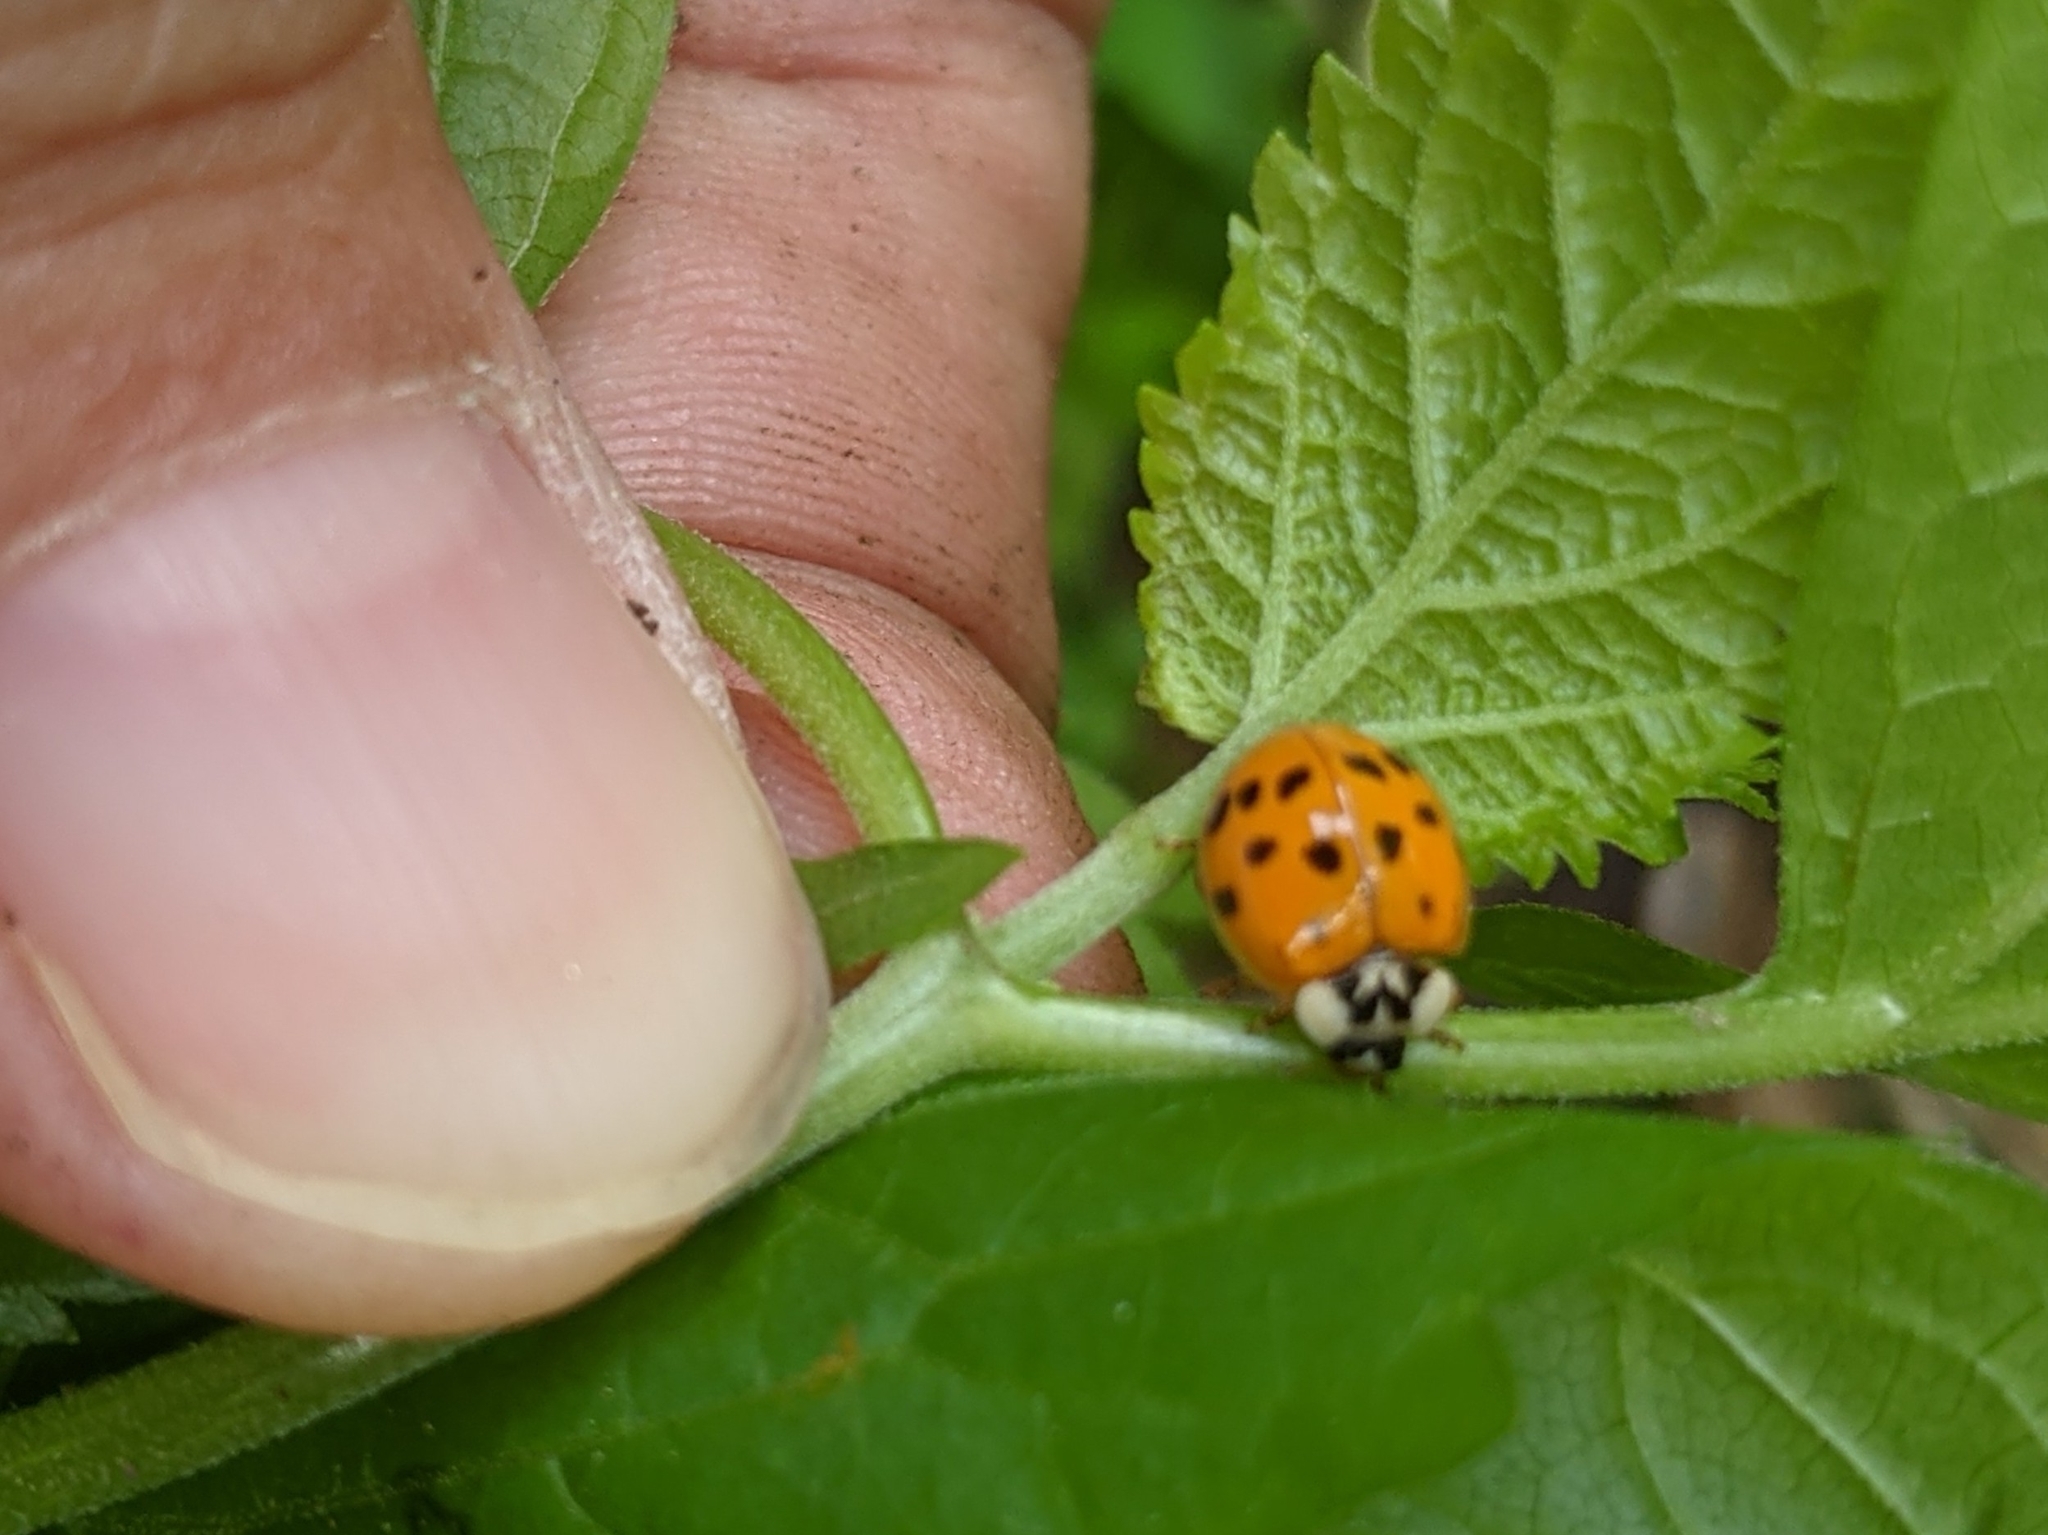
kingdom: Animalia
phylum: Arthropoda
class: Insecta
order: Coleoptera
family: Coccinellidae
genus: Harmonia
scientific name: Harmonia axyridis
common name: Harlequin ladybird
